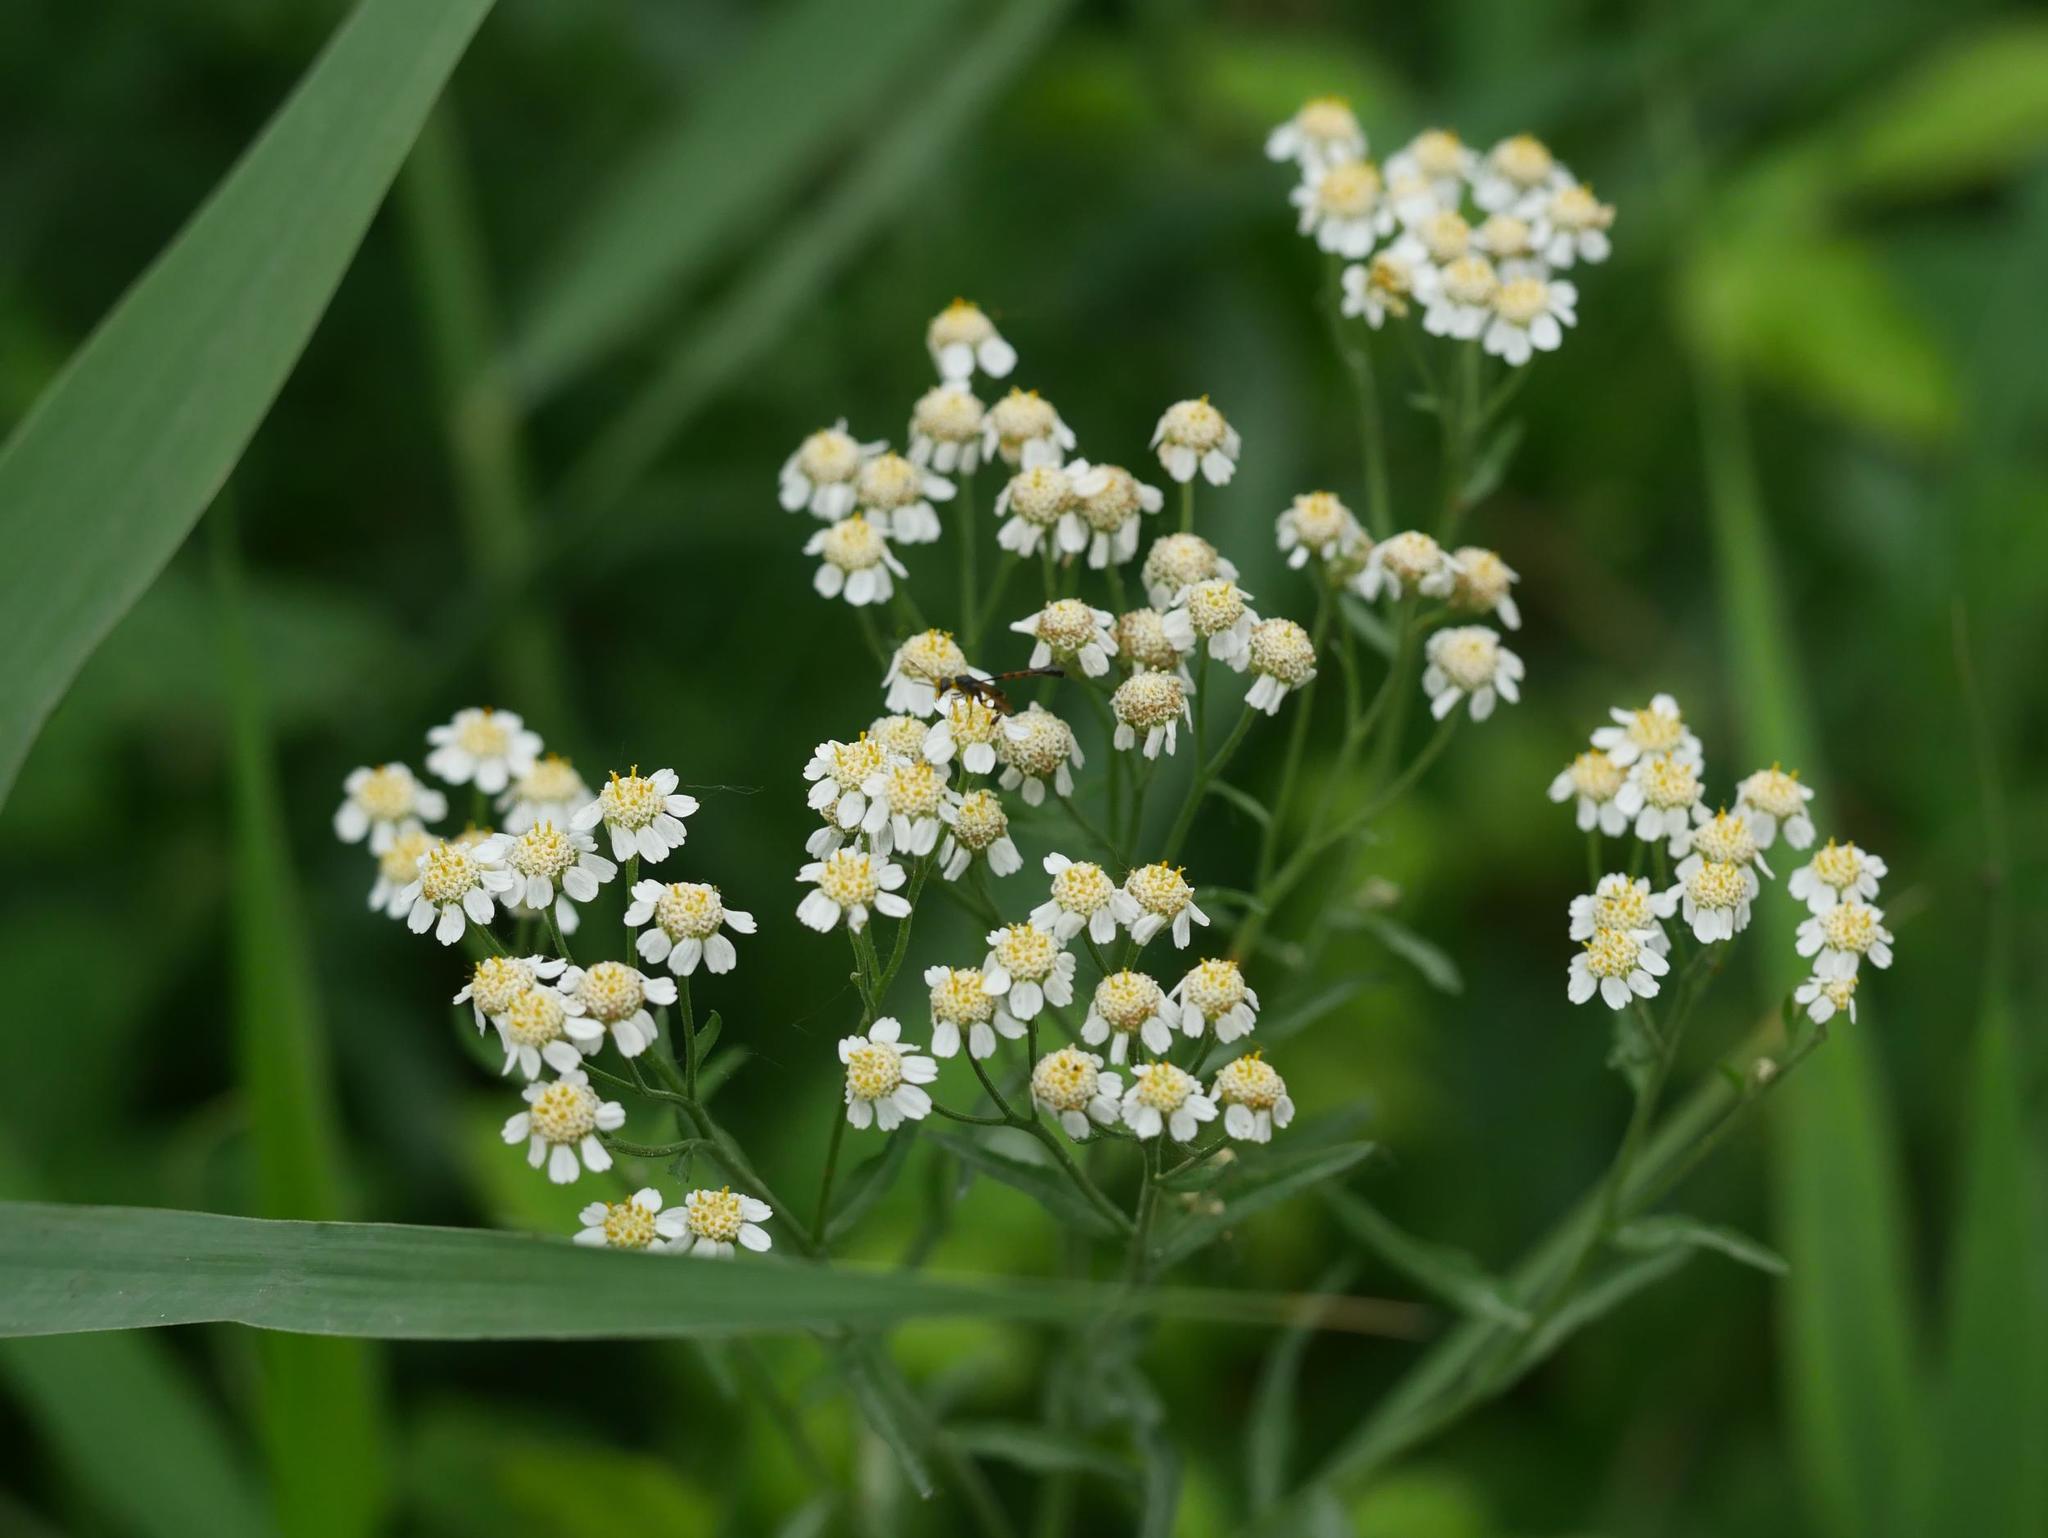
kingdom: Plantae
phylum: Tracheophyta
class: Magnoliopsida
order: Asterales
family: Asteraceae
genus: Achillea
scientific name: Achillea ptarmica
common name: Sneezeweed
